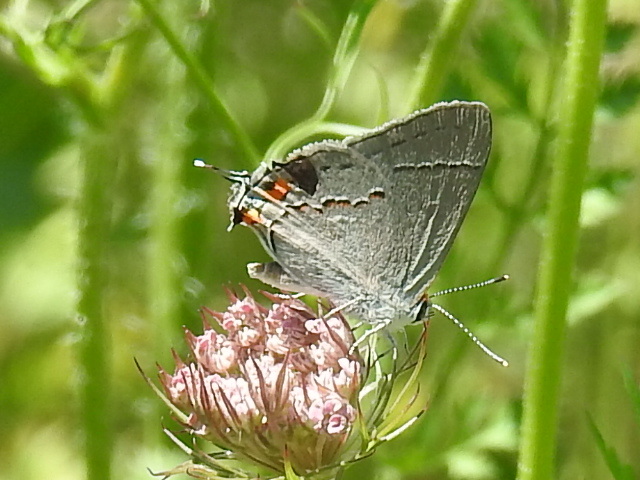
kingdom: Animalia
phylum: Arthropoda
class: Insecta
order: Lepidoptera
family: Lycaenidae
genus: Strymon
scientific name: Strymon melinus
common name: Gray hairstreak
